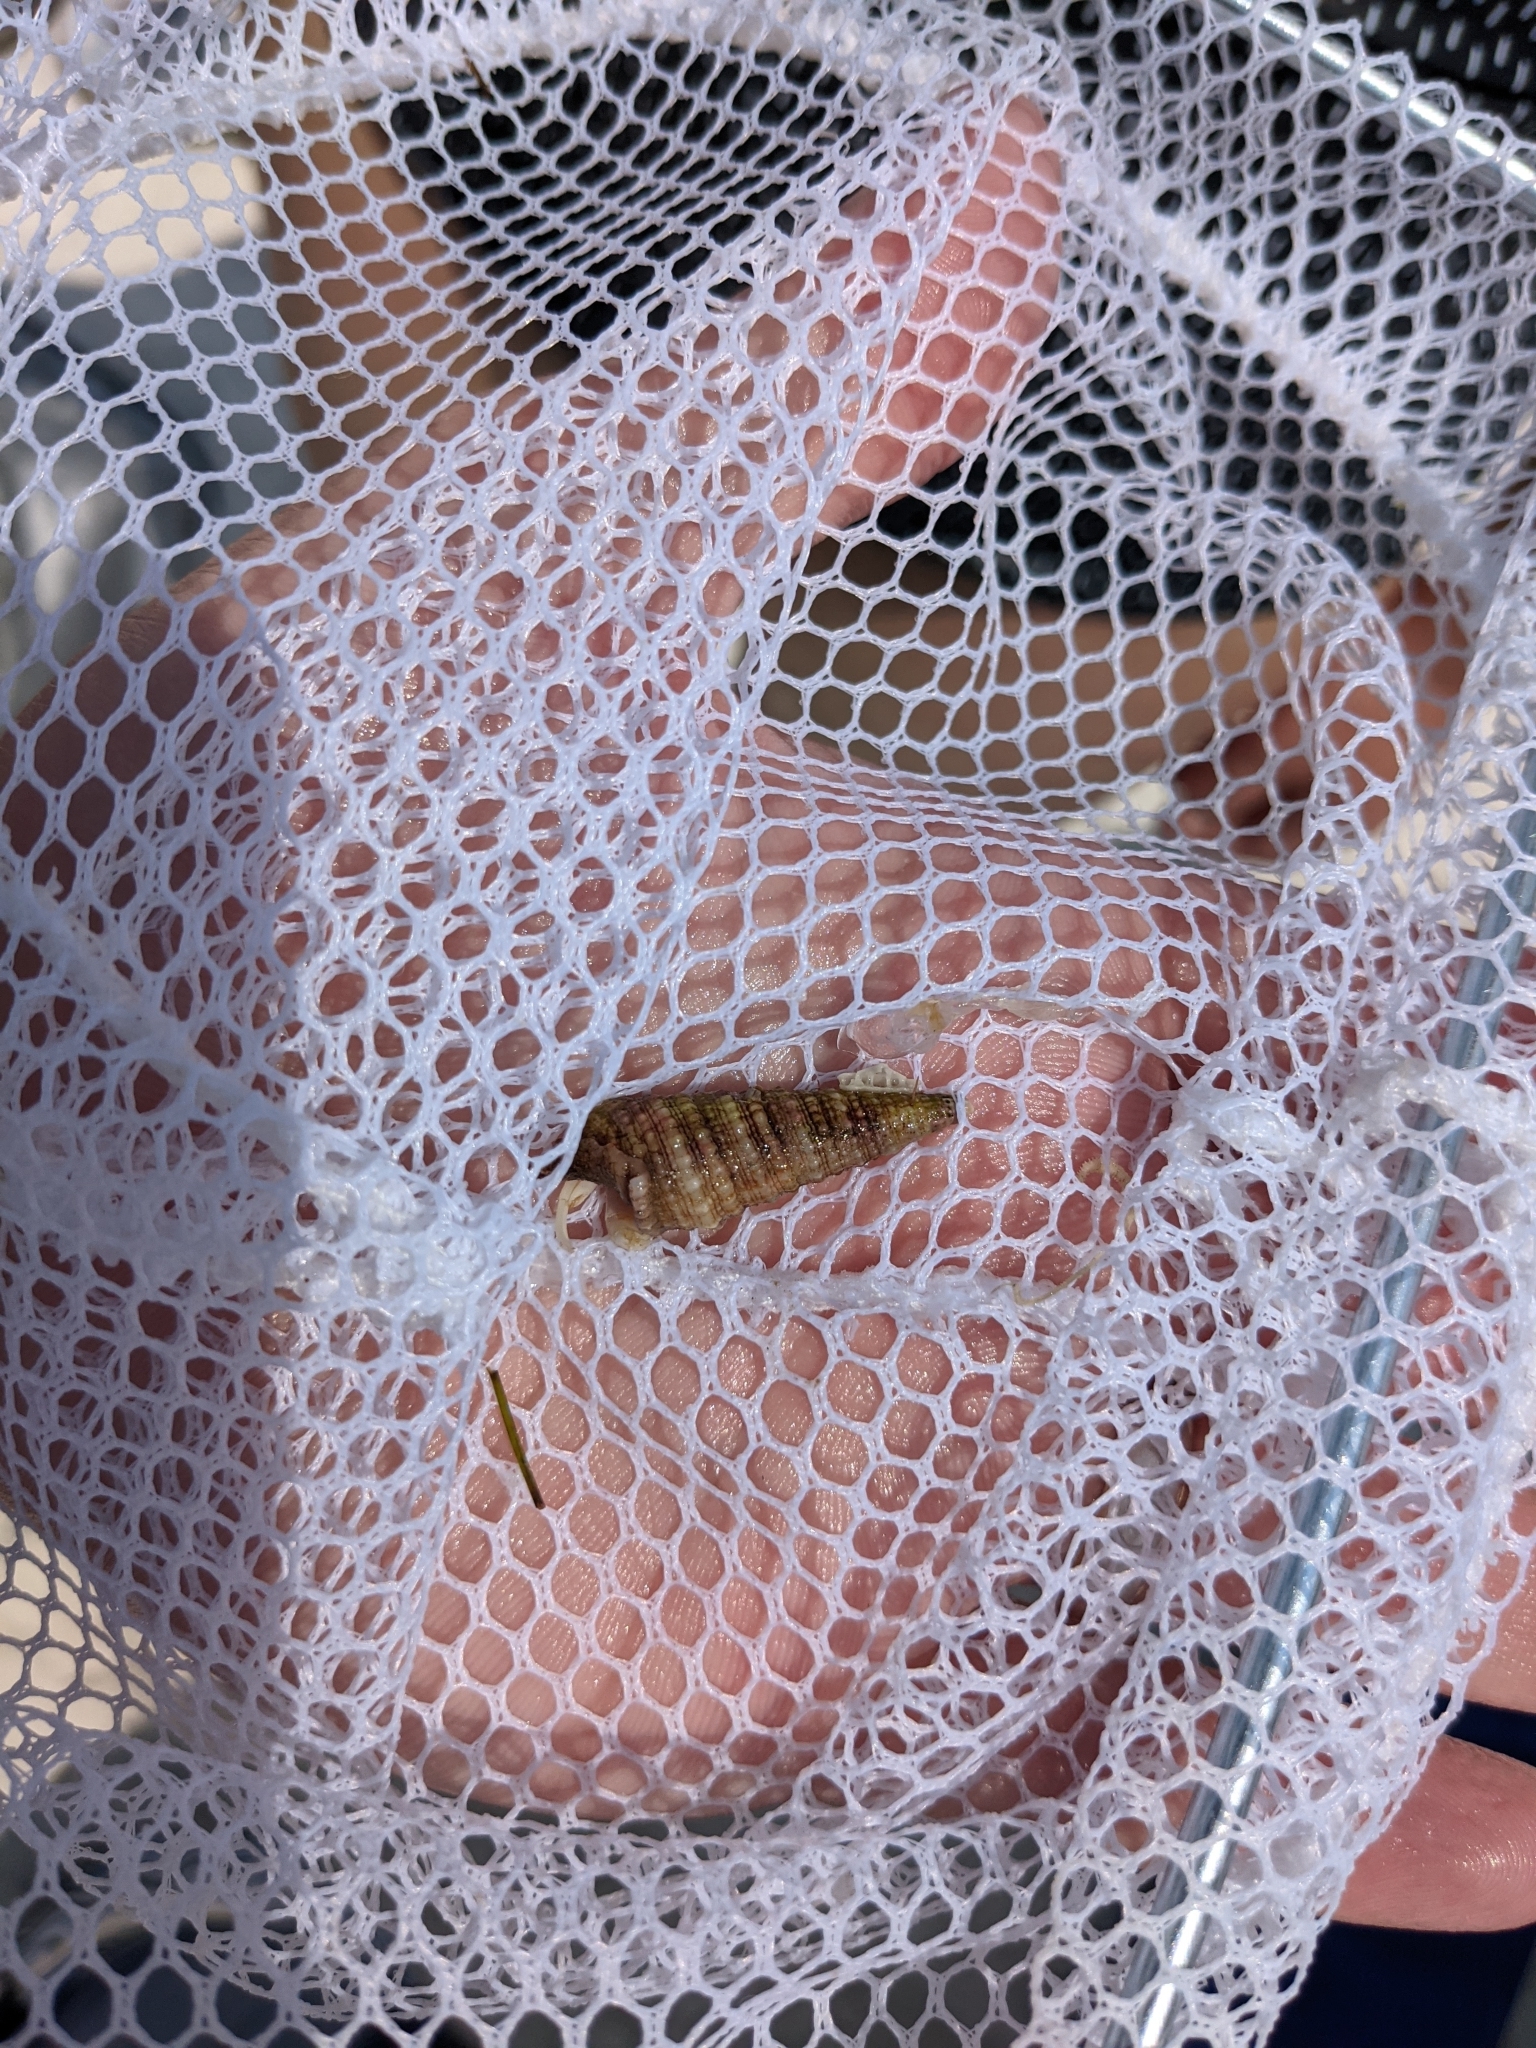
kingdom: Animalia
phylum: Mollusca
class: Gastropoda
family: Cerithiidae
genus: Cerithium
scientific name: Cerithium atratum
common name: Dark cerith
